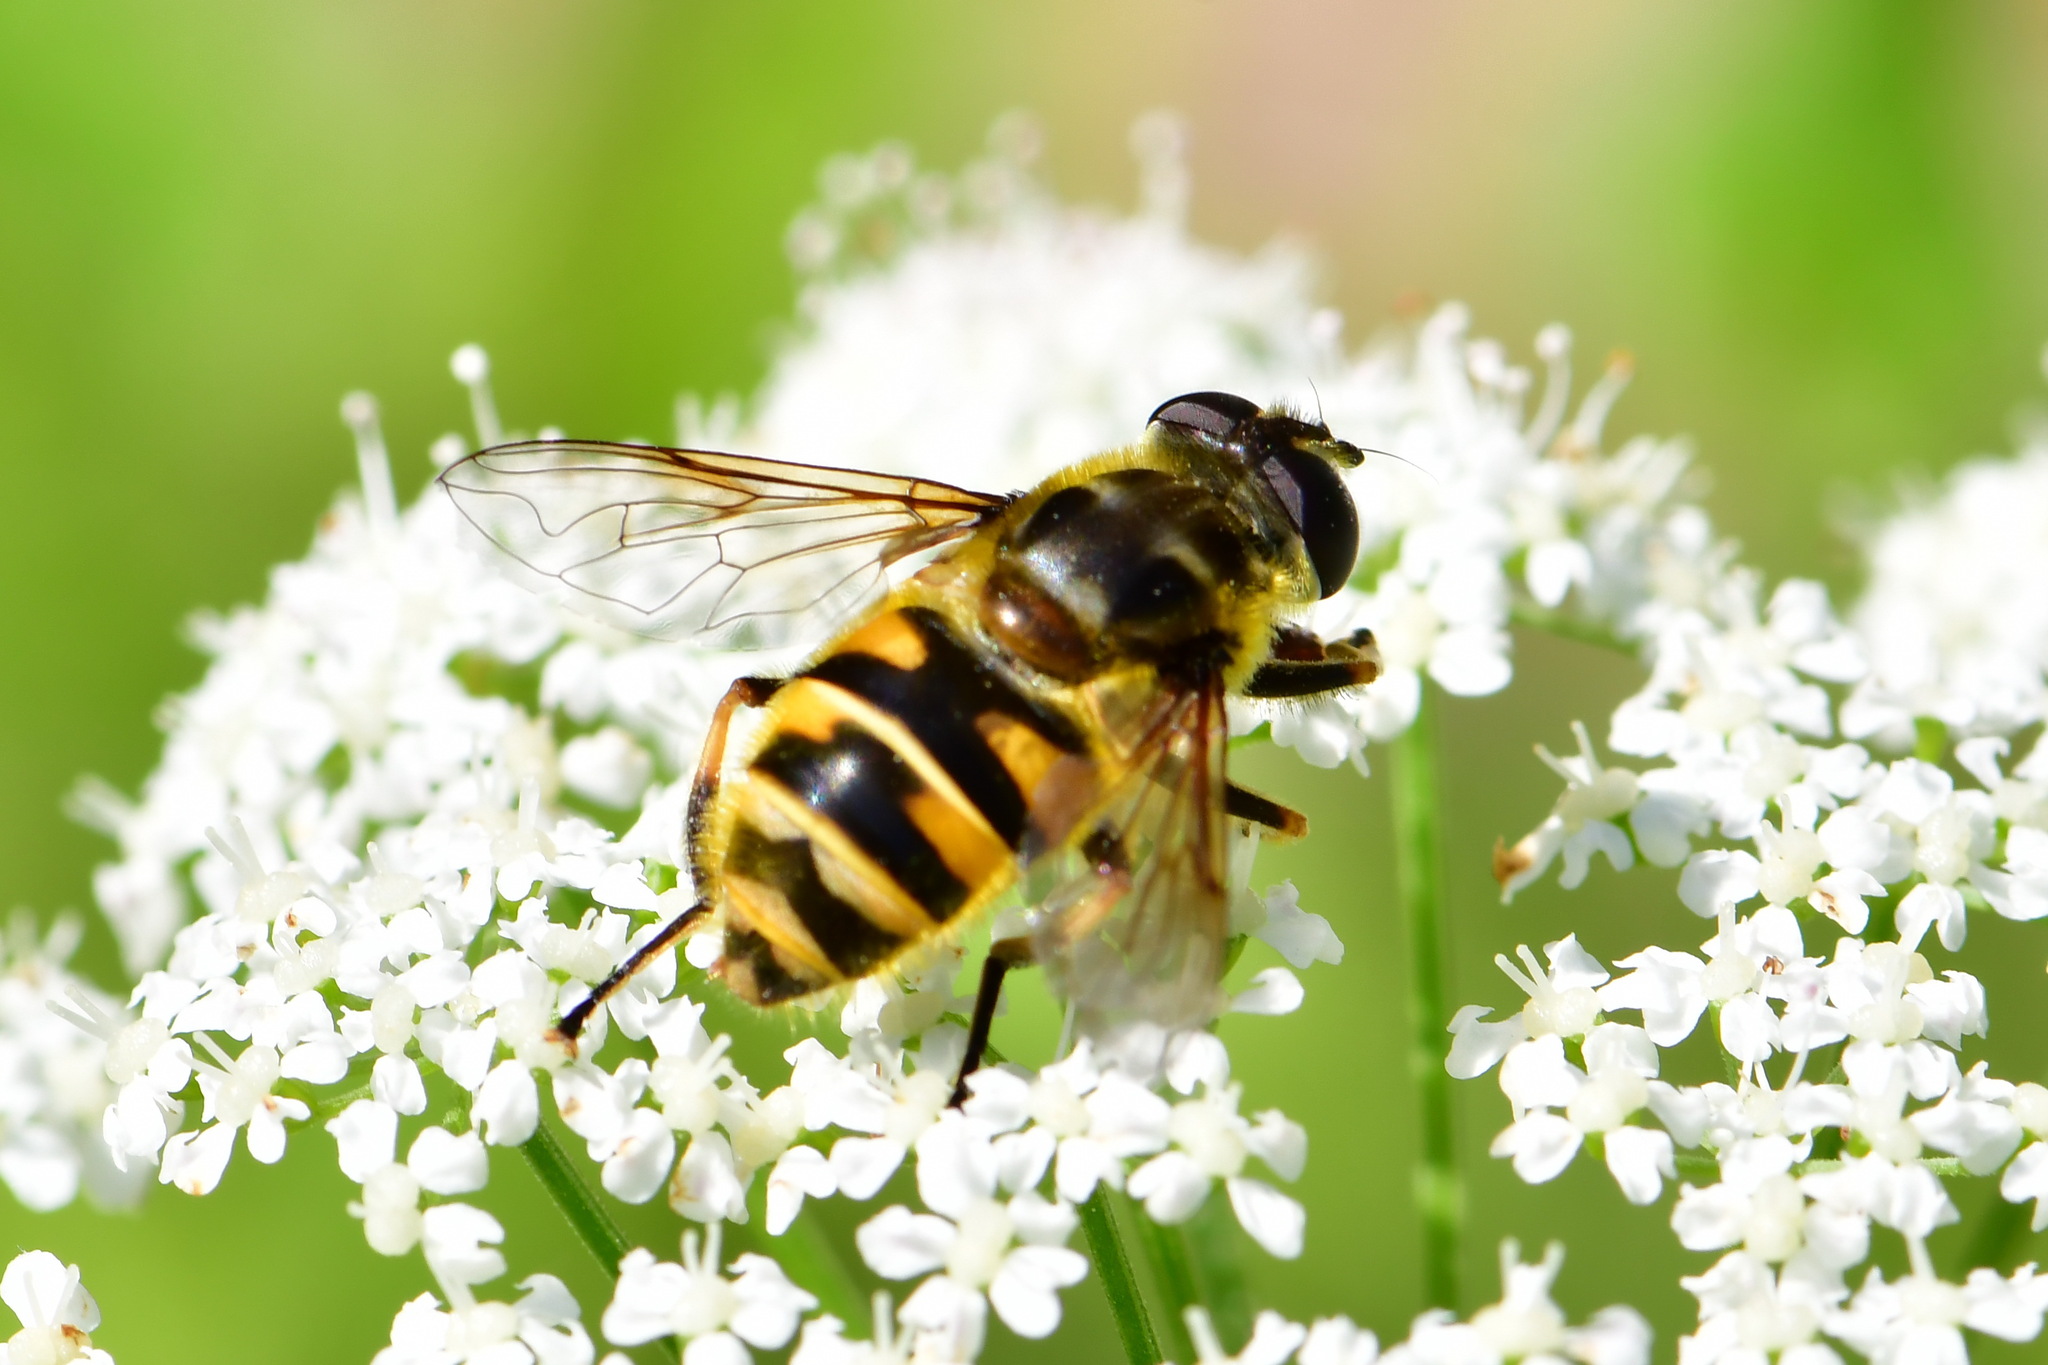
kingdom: Animalia
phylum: Arthropoda
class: Insecta
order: Diptera
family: Syrphidae
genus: Myathropa
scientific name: Myathropa florea
